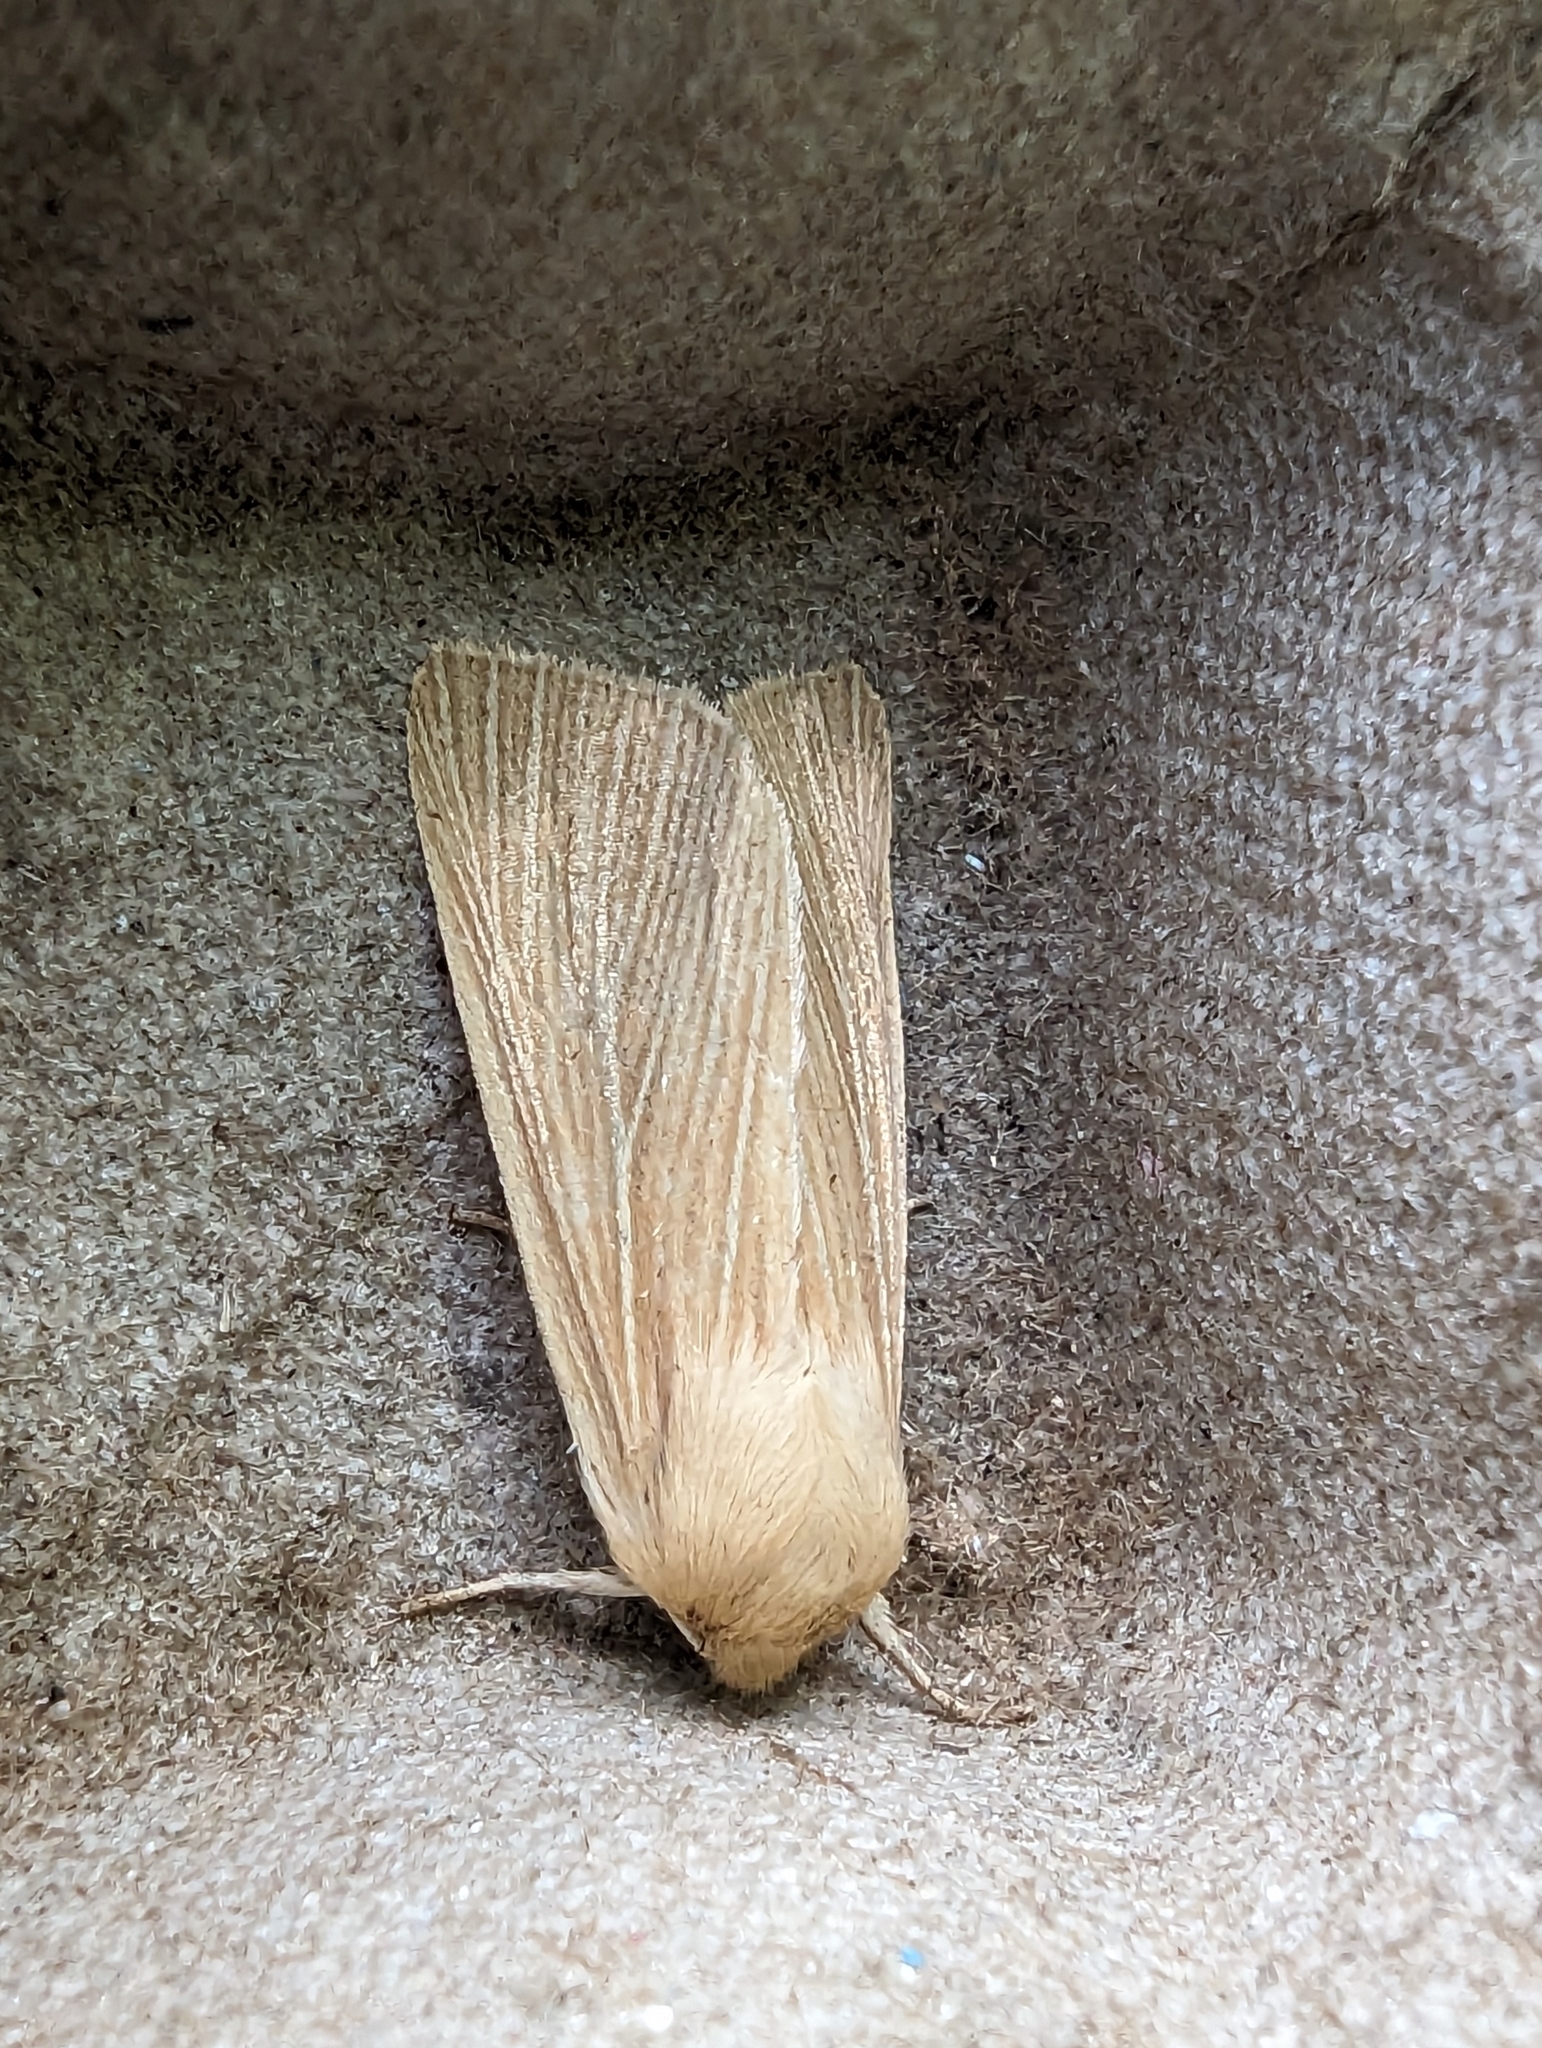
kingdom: Animalia
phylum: Arthropoda
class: Insecta
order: Lepidoptera
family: Noctuidae
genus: Mythimna
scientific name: Mythimna pallens
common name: Common wainscot
